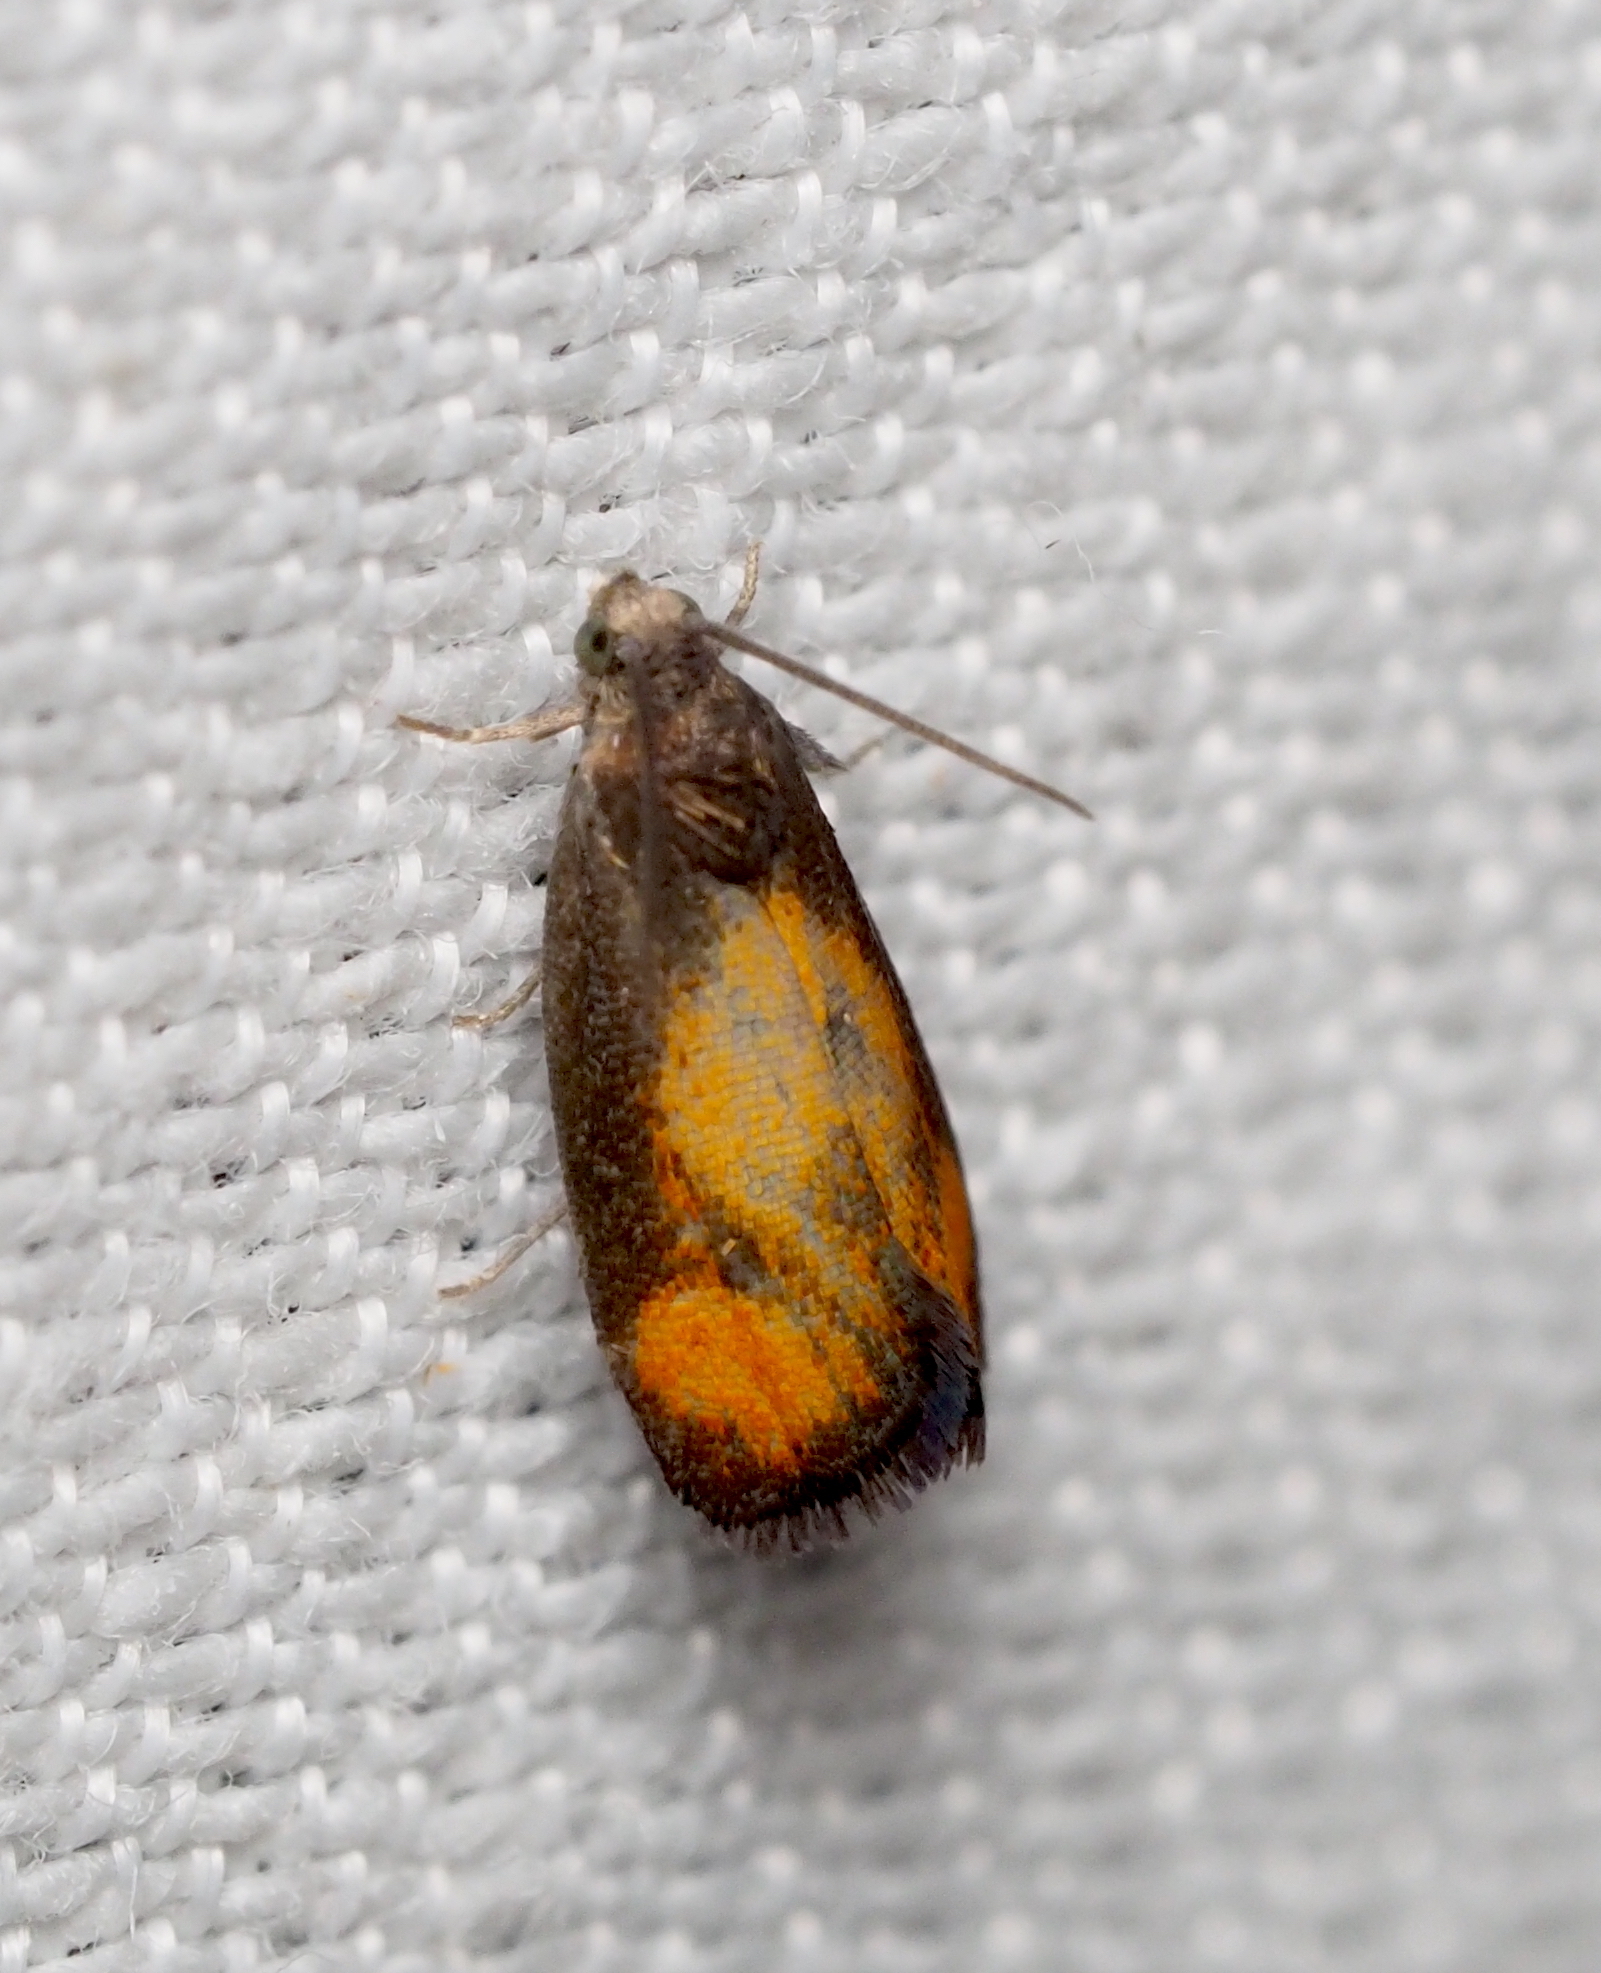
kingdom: Animalia
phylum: Arthropoda
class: Insecta
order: Lepidoptera
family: Tortricidae
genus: Pammene
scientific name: Pammene aurana
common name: Orange-spot piercer
